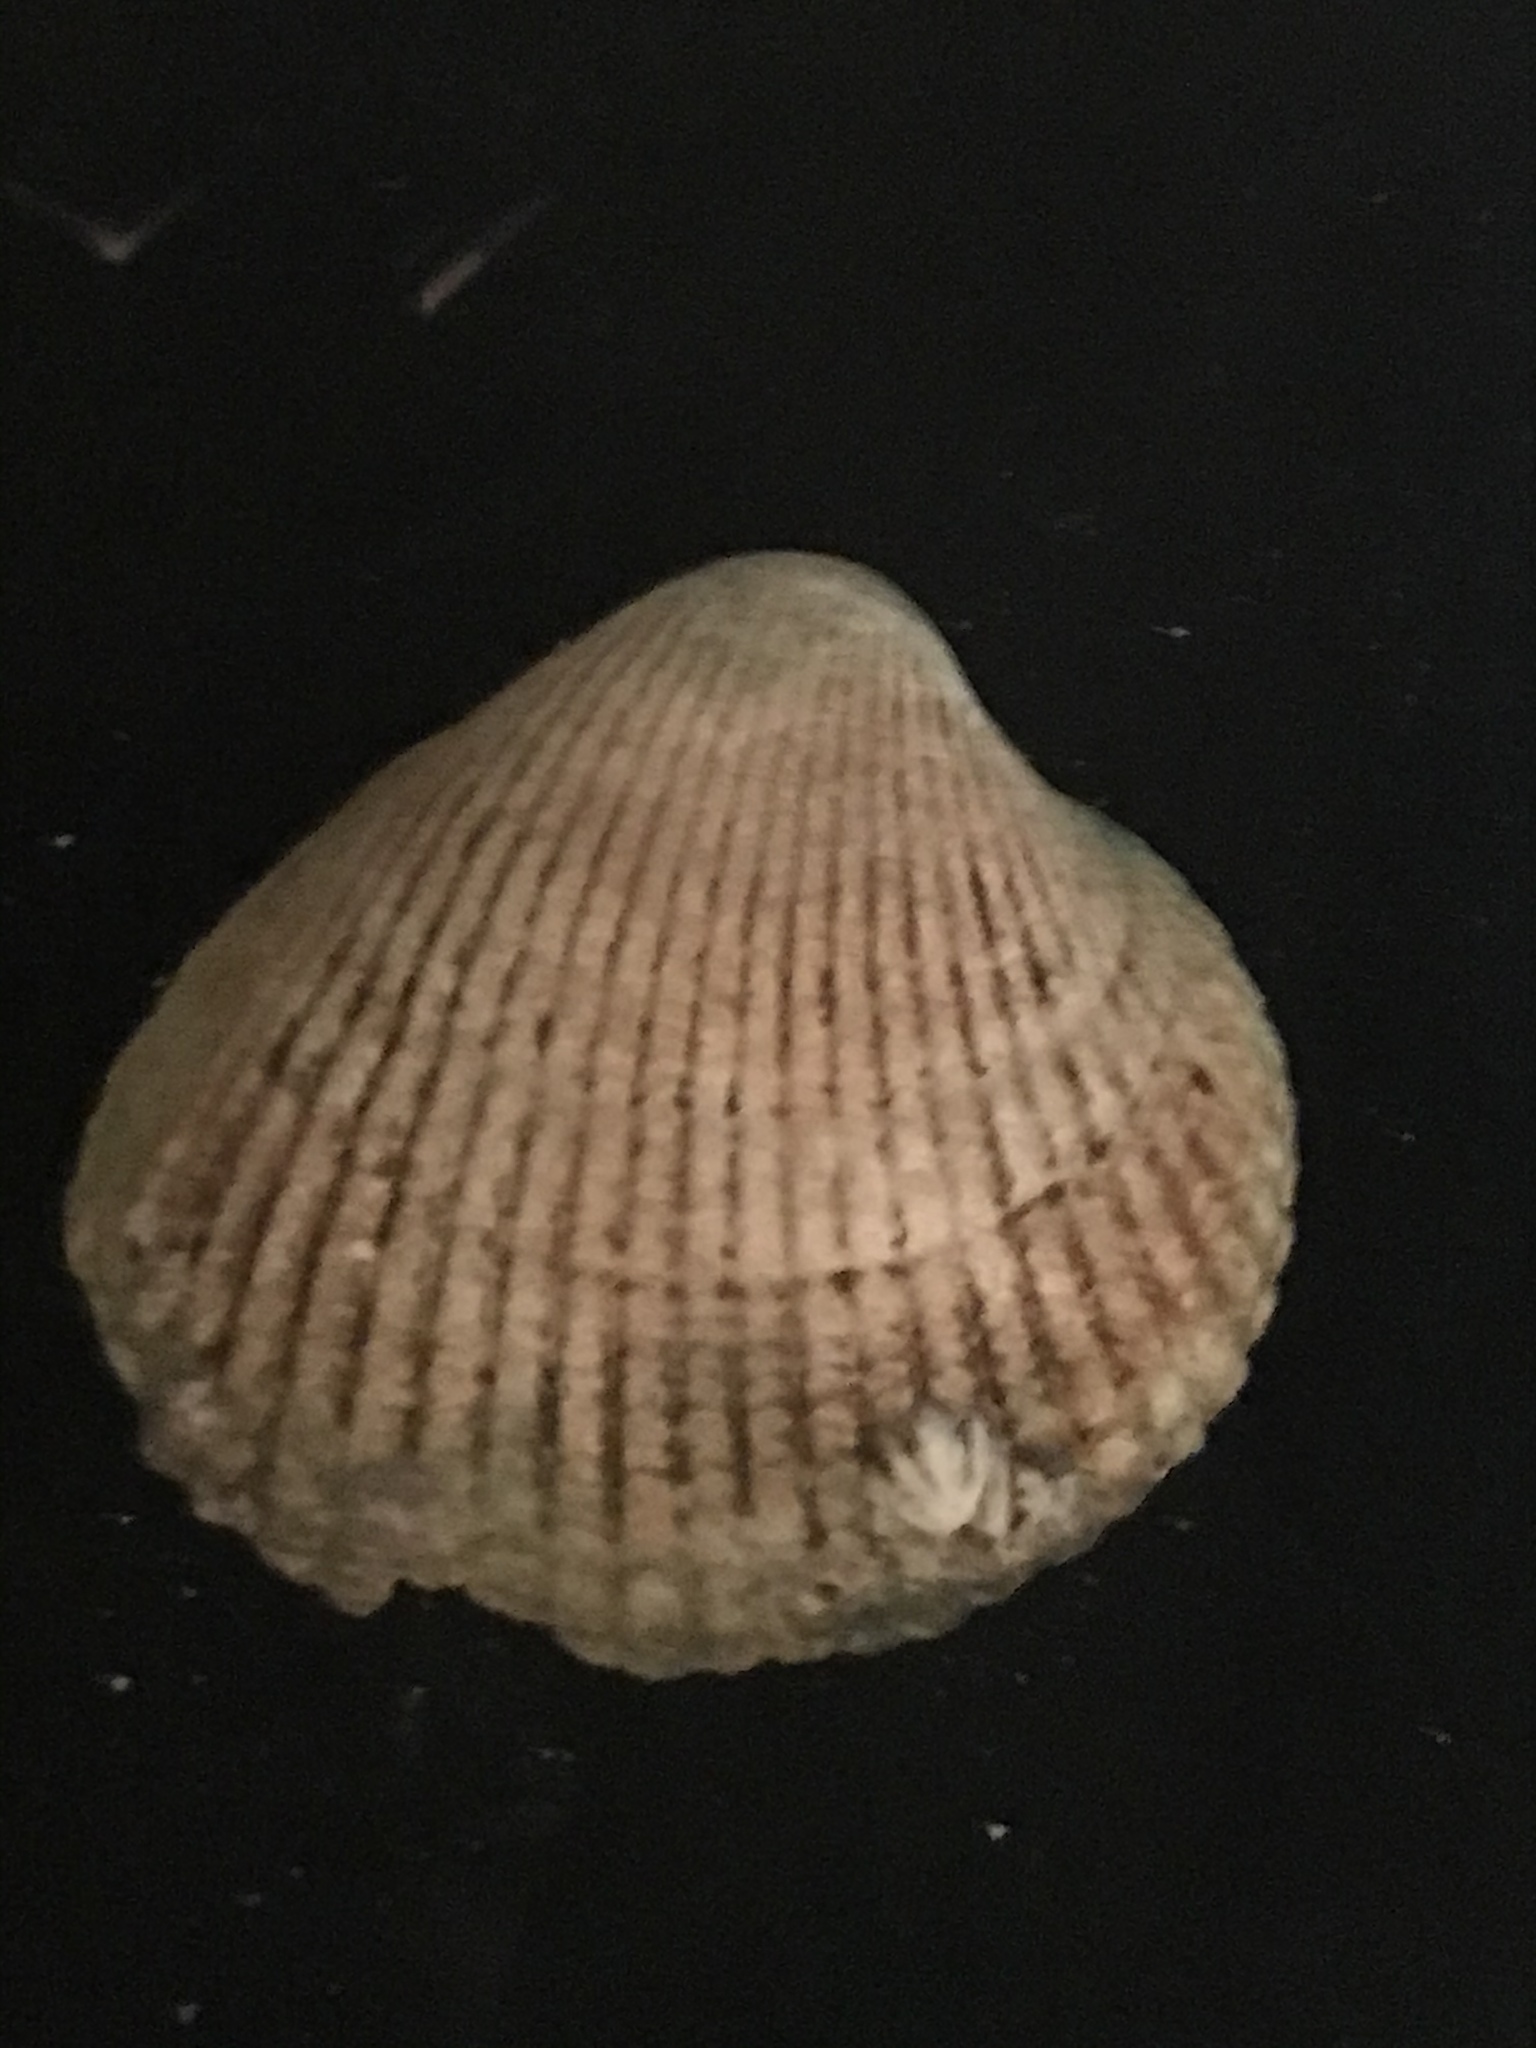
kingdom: Animalia
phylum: Mollusca
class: Bivalvia
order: Cardiida
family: Cardiidae
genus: Clinocardium
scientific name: Clinocardium nuttallii
